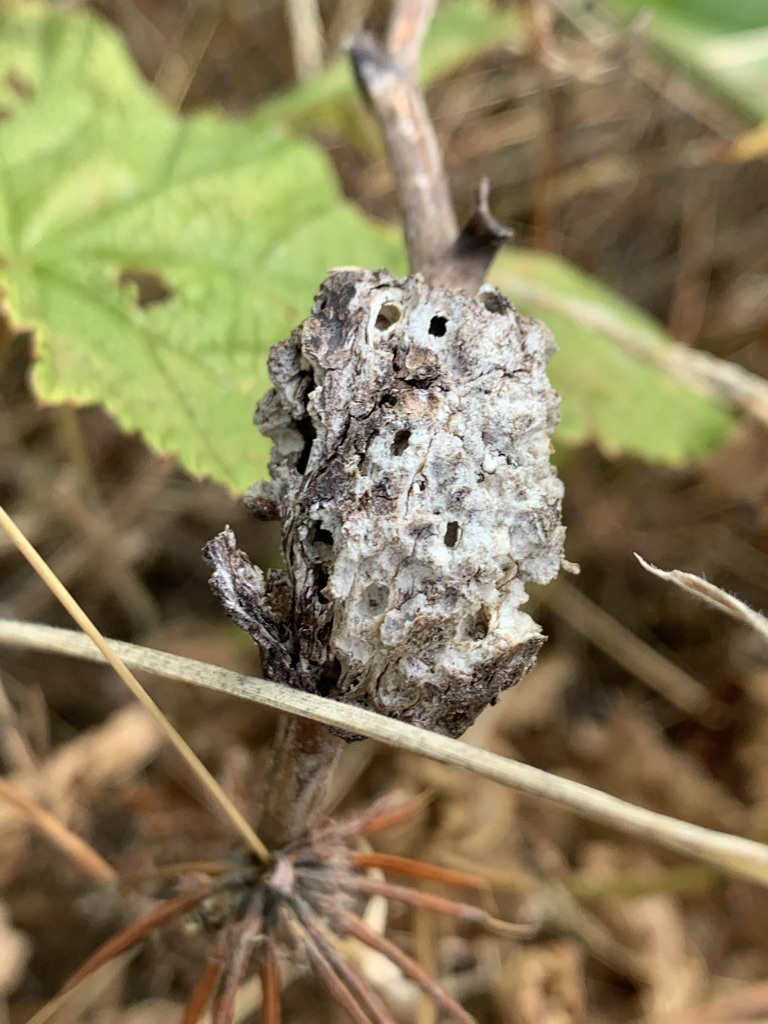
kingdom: Animalia
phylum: Arthropoda
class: Insecta
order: Hymenoptera
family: Cynipidae
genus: Diastrophus
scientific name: Diastrophus
